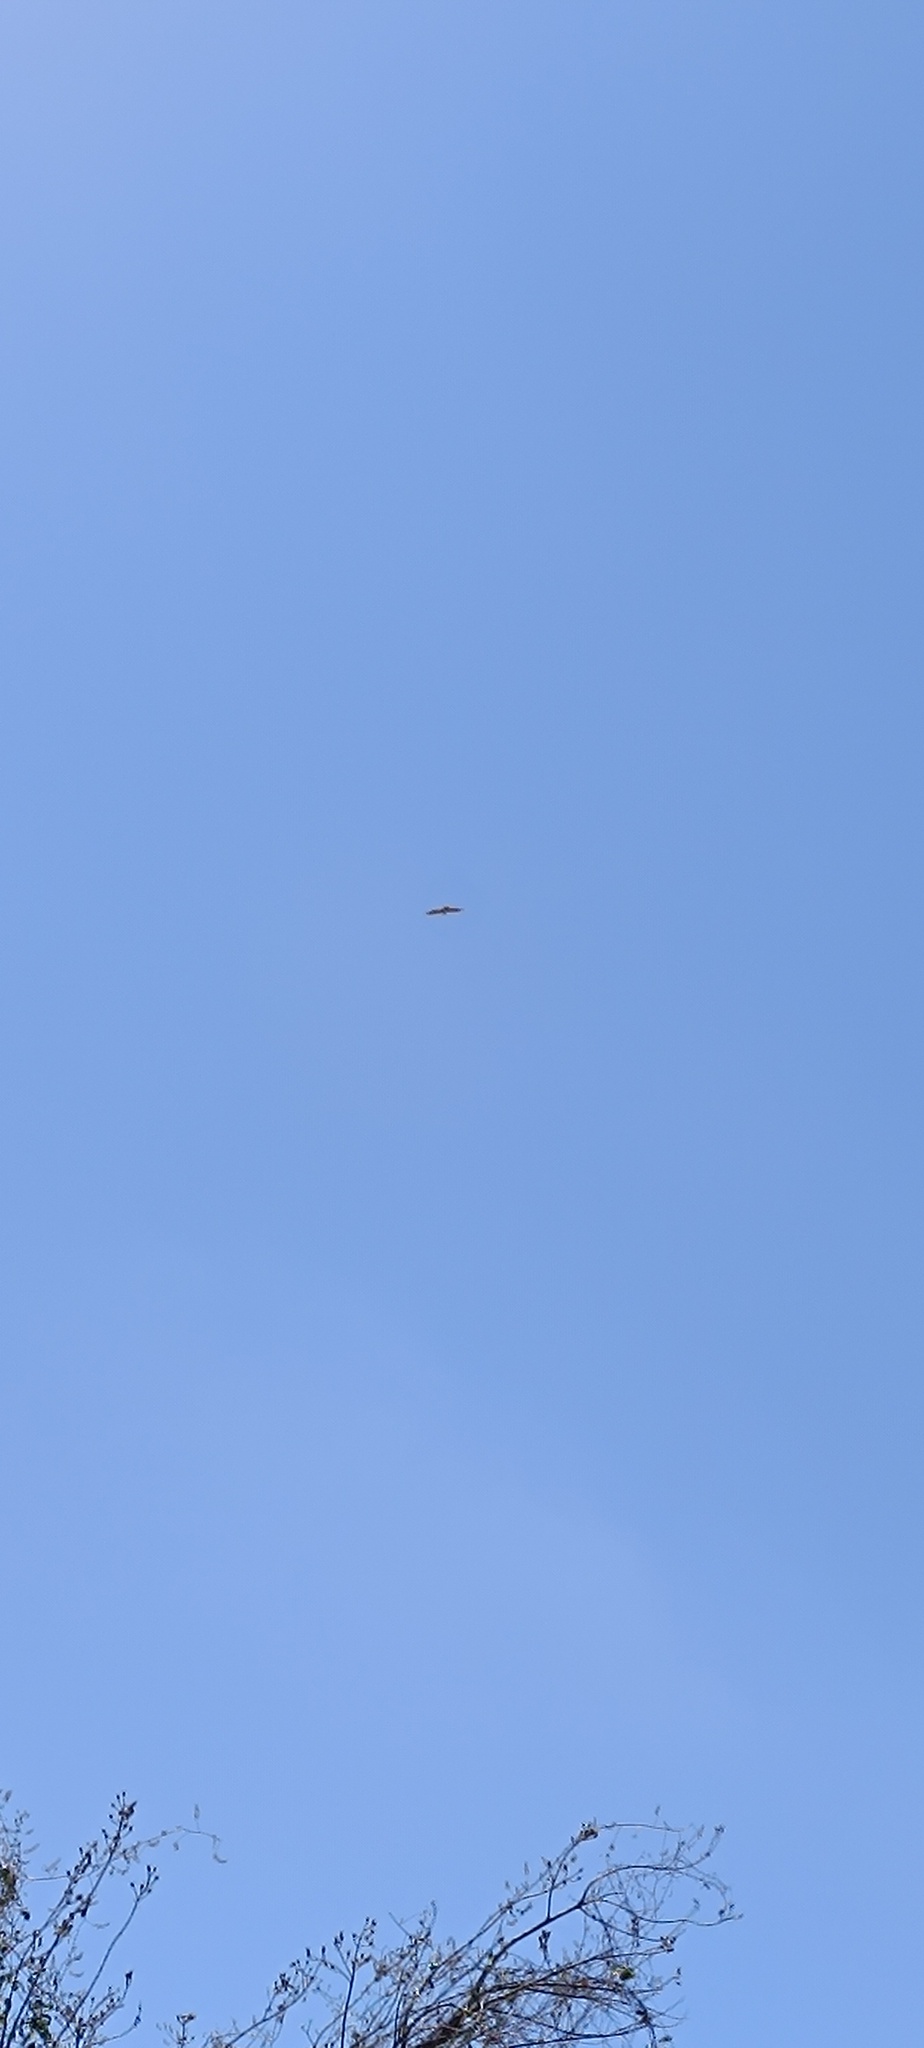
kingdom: Animalia
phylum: Chordata
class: Aves
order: Accipitriformes
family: Accipitridae
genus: Buteo
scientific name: Buteo jamaicensis
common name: Red-tailed hawk
